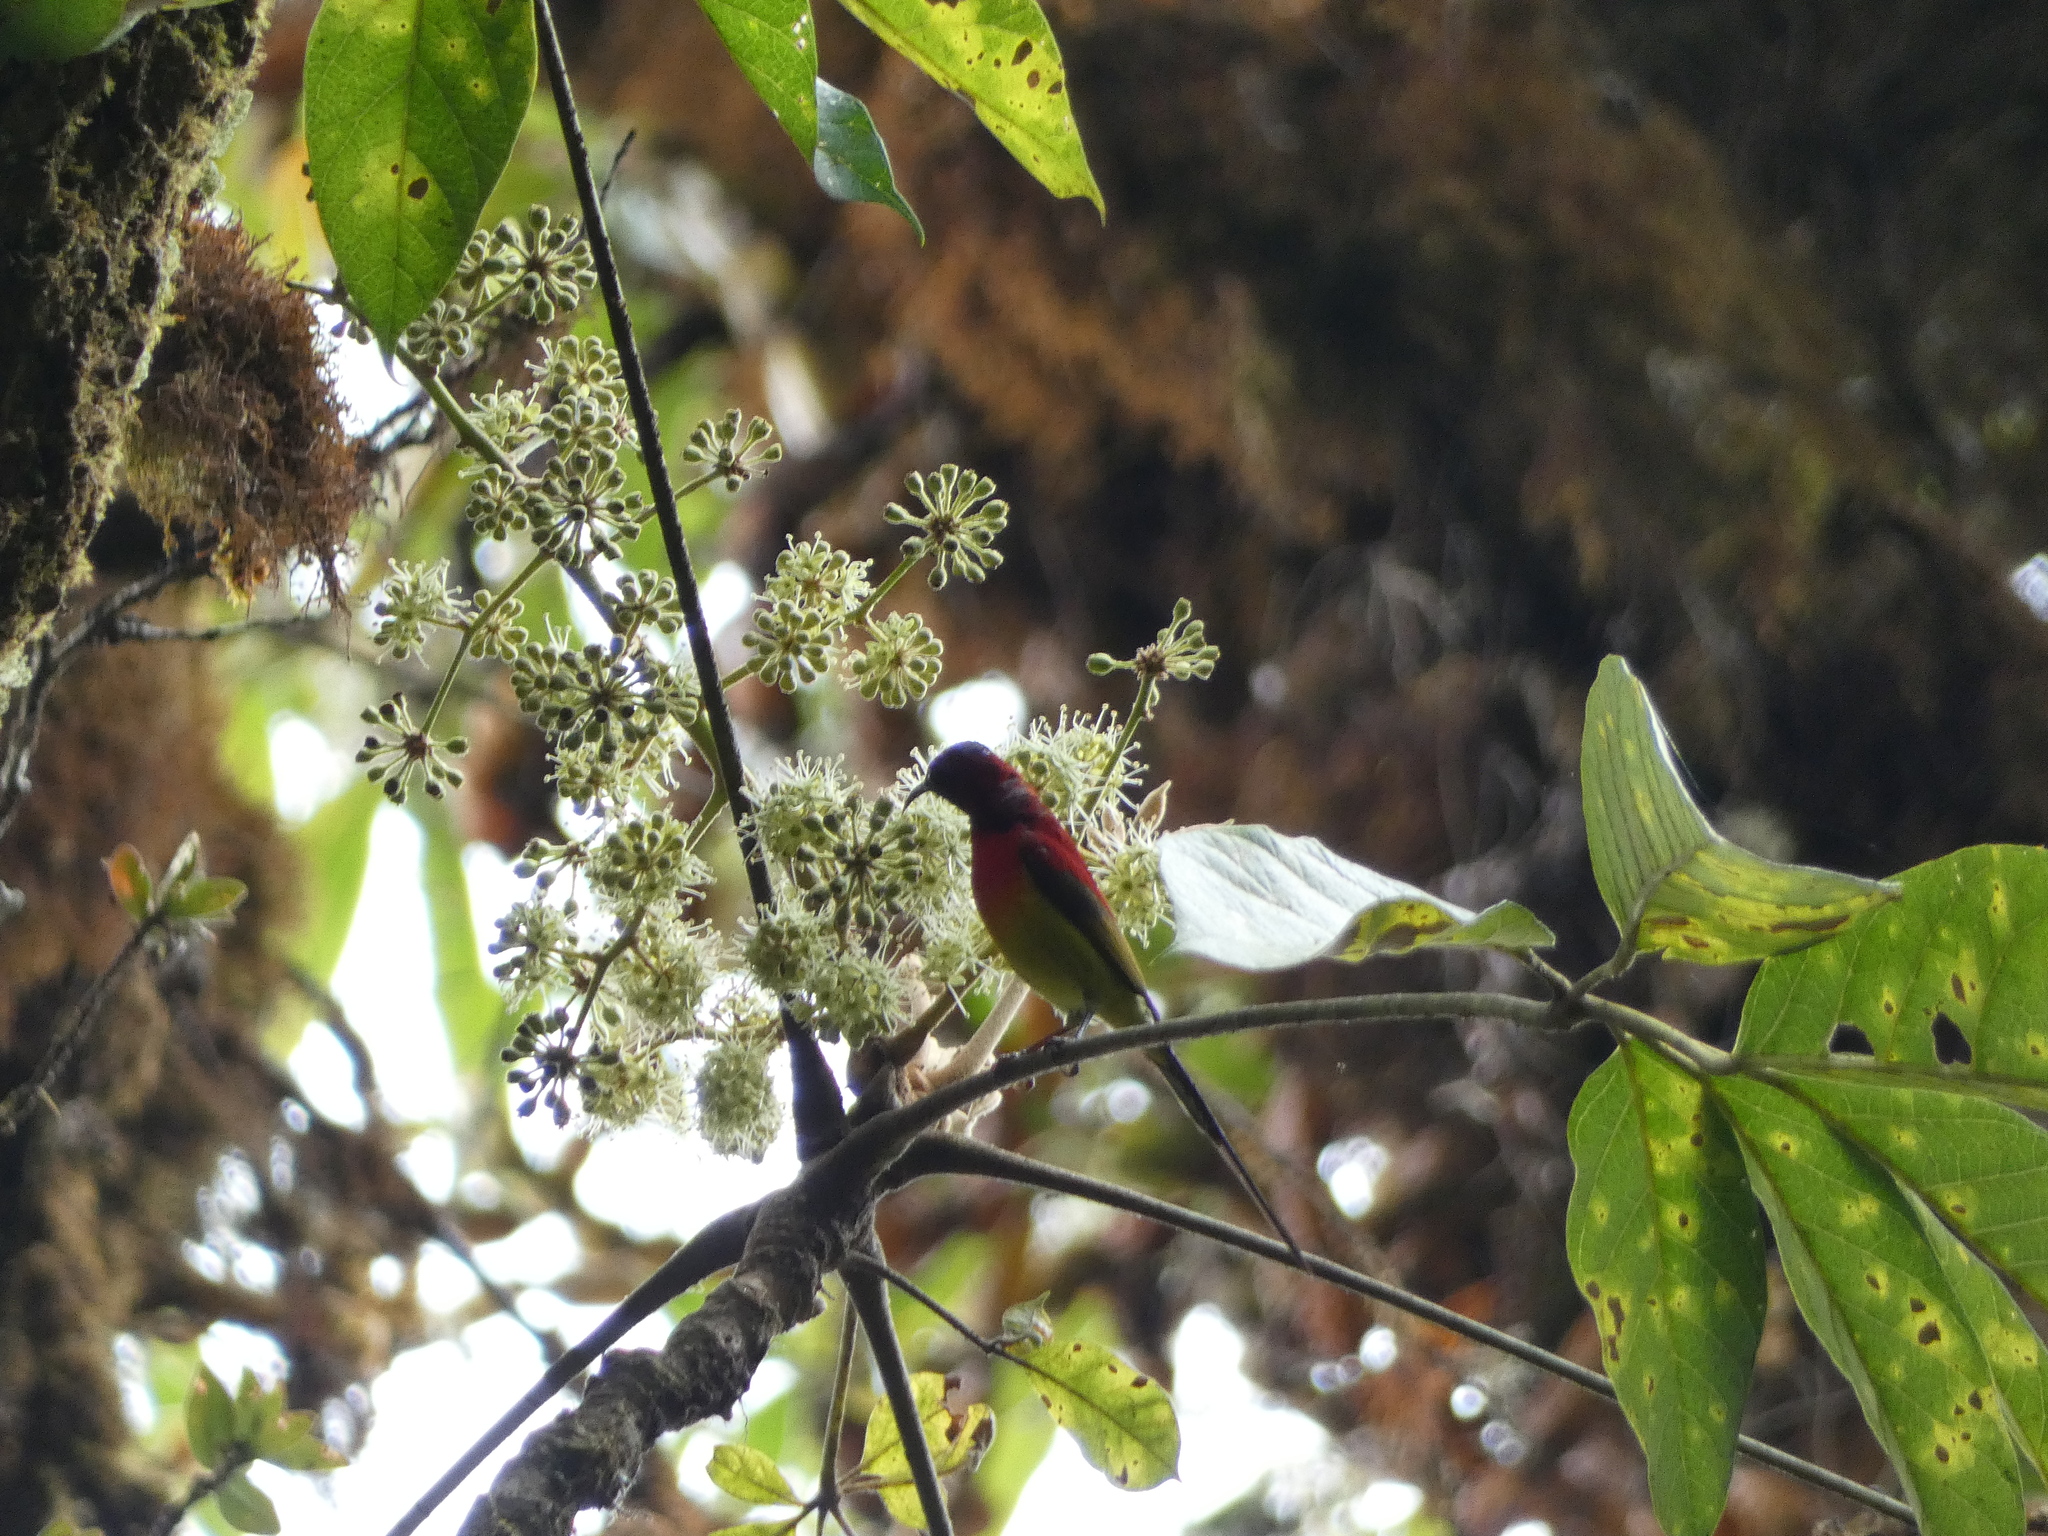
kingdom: Animalia
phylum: Chordata
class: Aves
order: Passeriformes
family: Nectariniidae
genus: Aethopyga
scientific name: Aethopyga gouldiae
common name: Mrs. gould's sunbird
